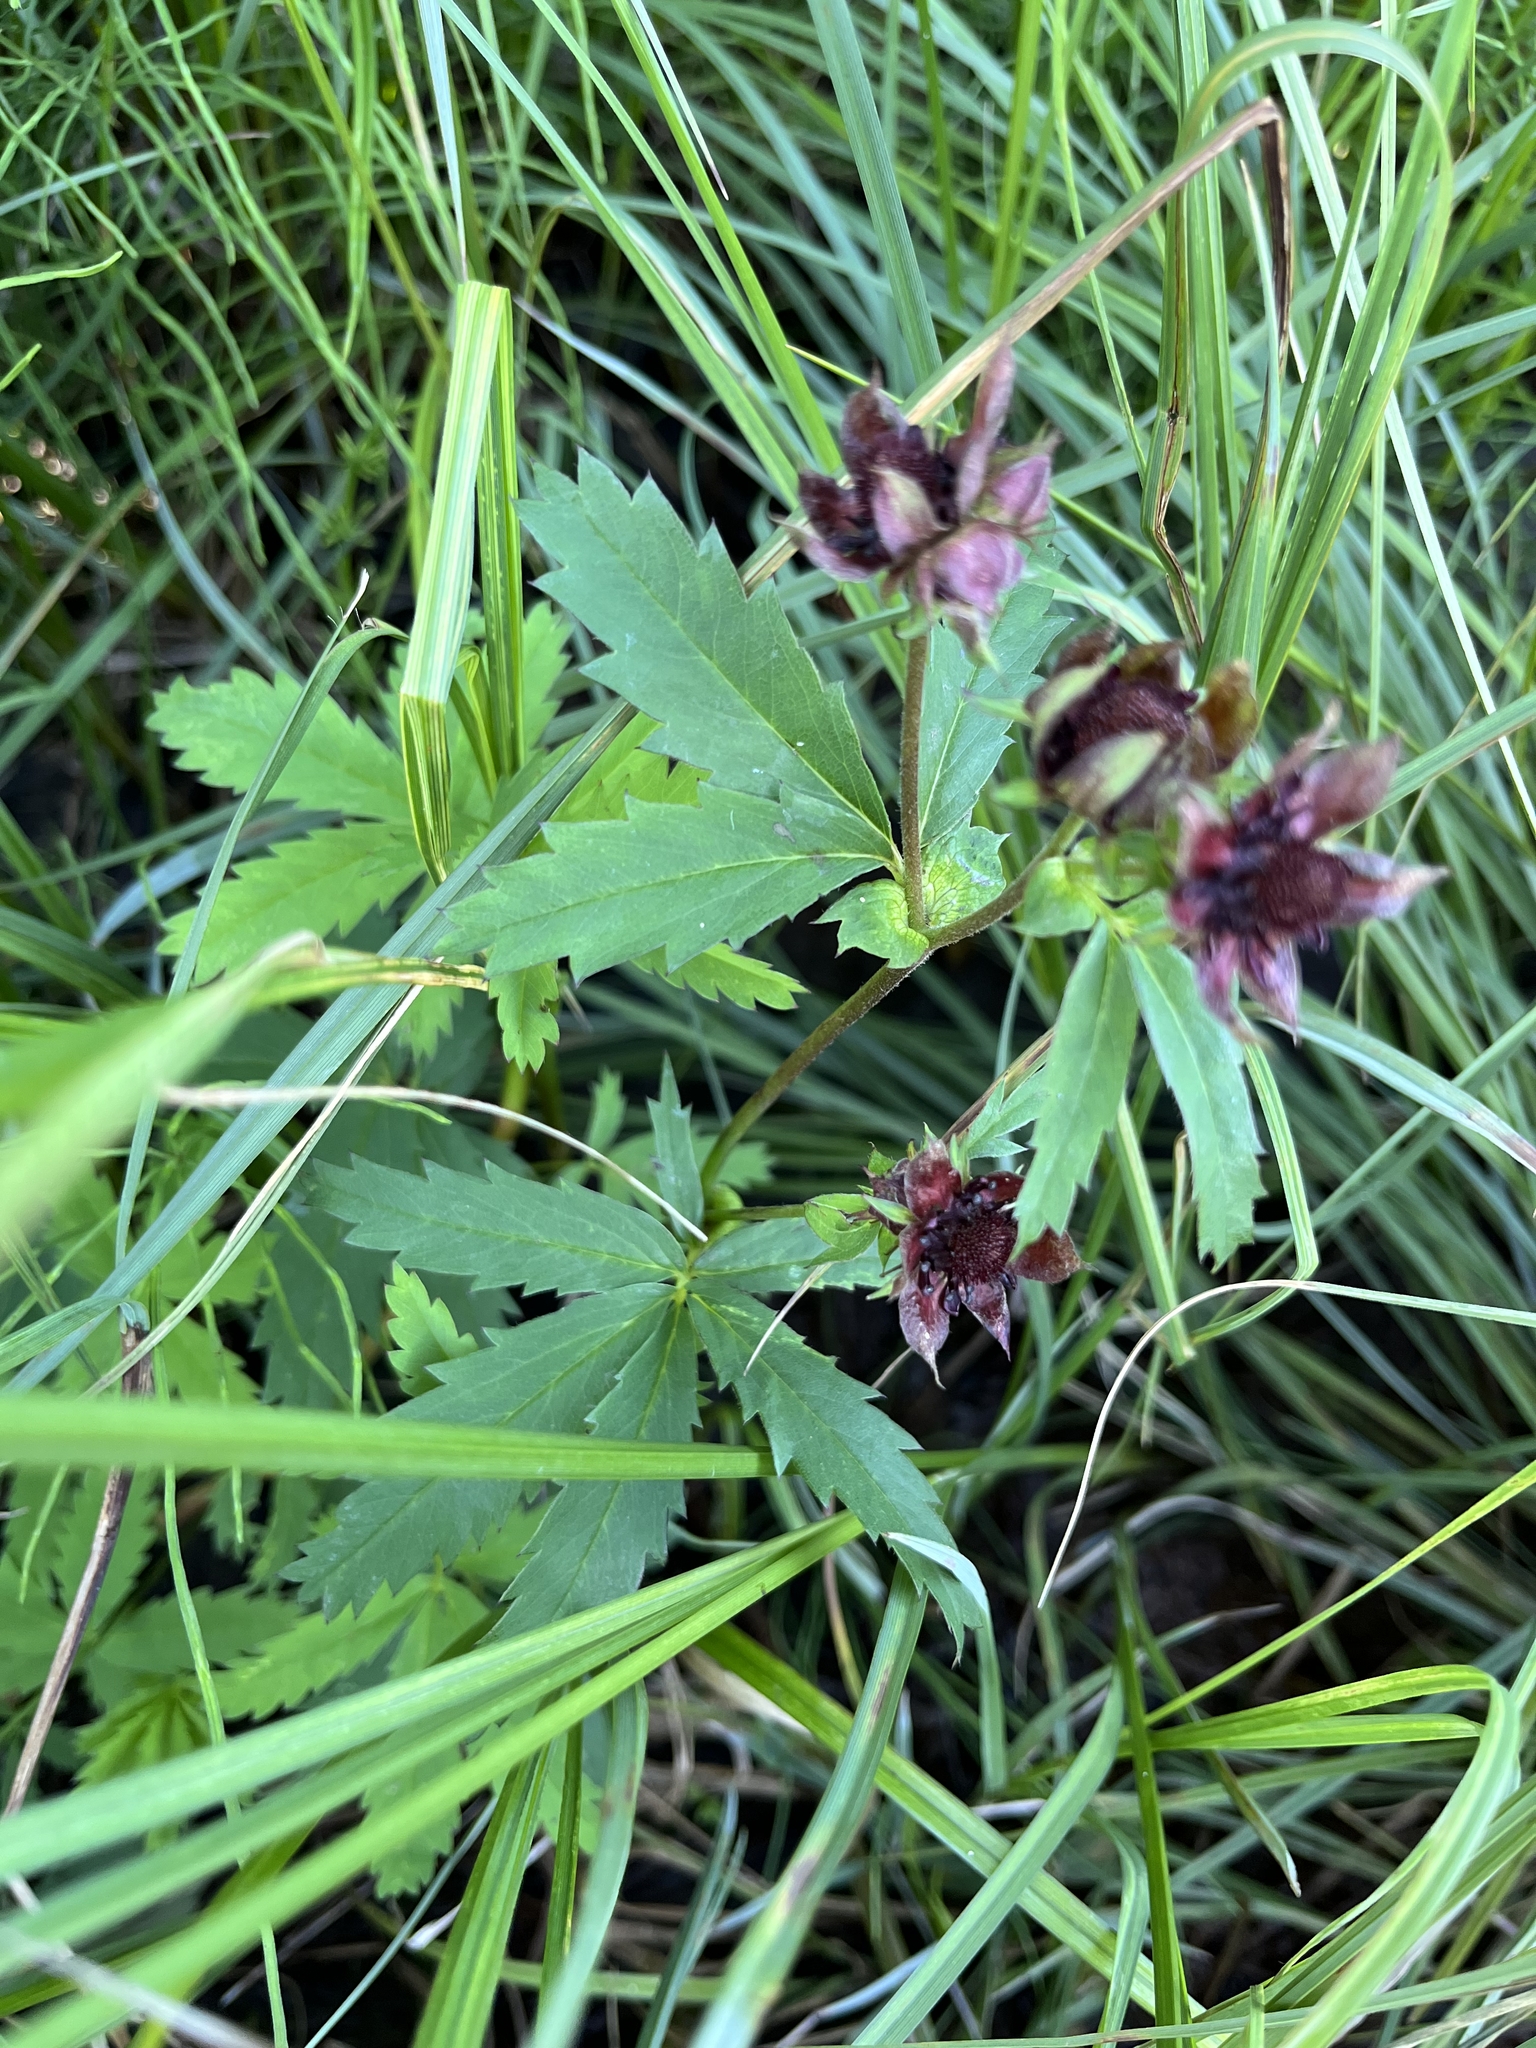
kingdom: Plantae
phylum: Tracheophyta
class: Magnoliopsida
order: Rosales
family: Rosaceae
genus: Comarum
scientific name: Comarum palustre
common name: Marsh cinquefoil
